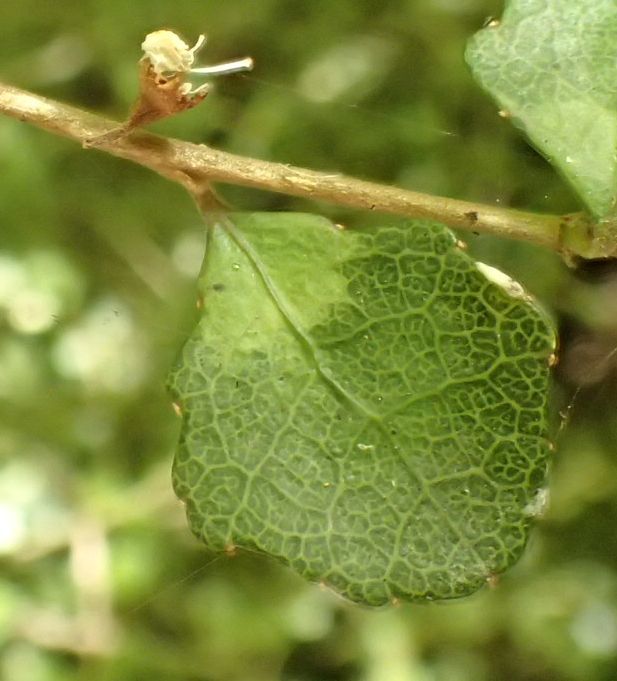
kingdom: Plantae
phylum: Tracheophyta
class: Magnoliopsida
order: Malpighiales
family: Violaceae
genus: Melicytus
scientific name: Melicytus micranthus
